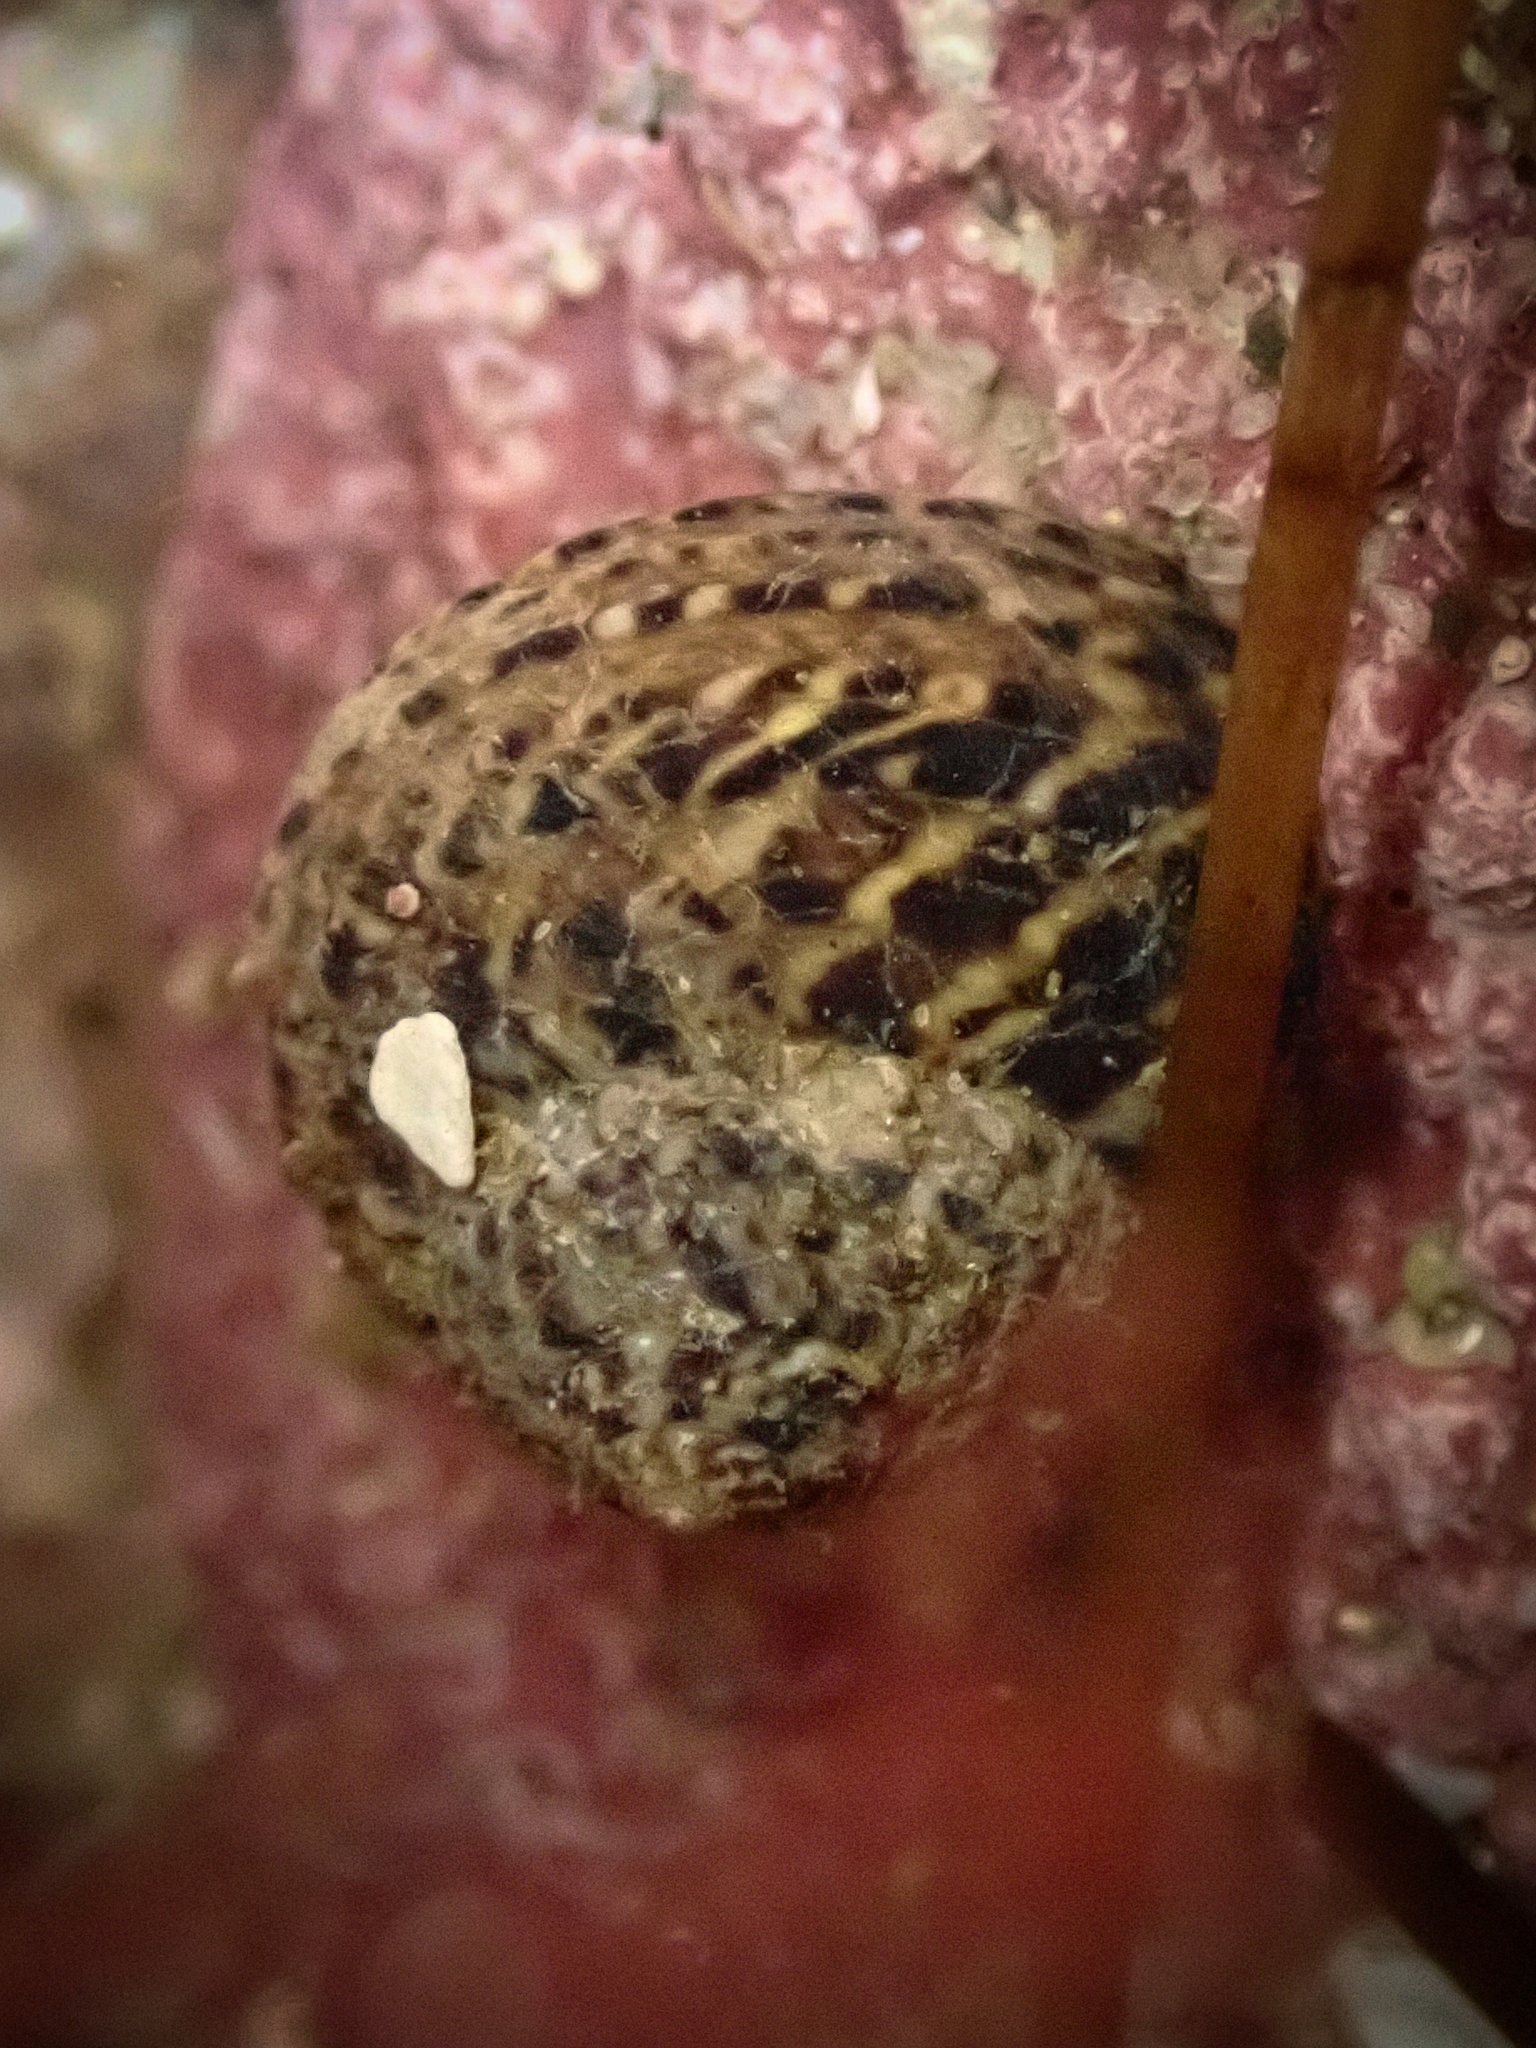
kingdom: Animalia
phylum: Mollusca
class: Gastropoda
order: Trochida
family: Tegulidae
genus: Tegula
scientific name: Tegula eiseni
